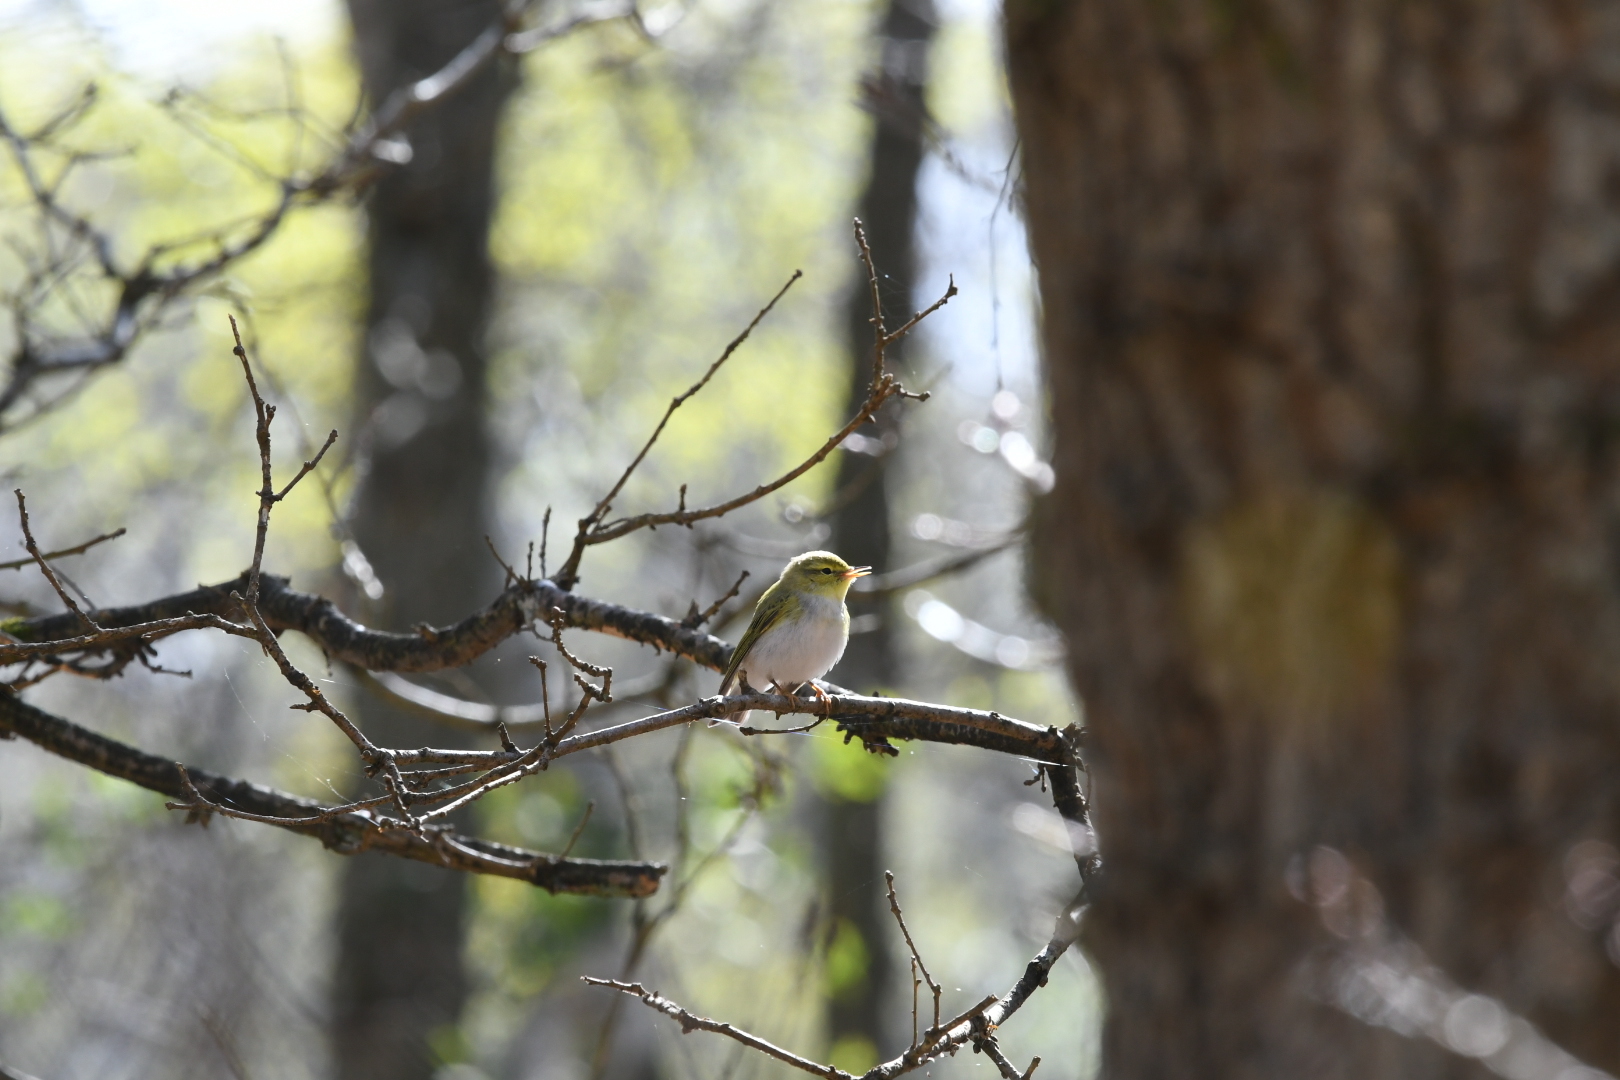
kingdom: Animalia
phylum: Chordata
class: Aves
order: Passeriformes
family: Phylloscopidae
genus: Phylloscopus
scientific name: Phylloscopus sibillatrix
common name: Wood warbler
